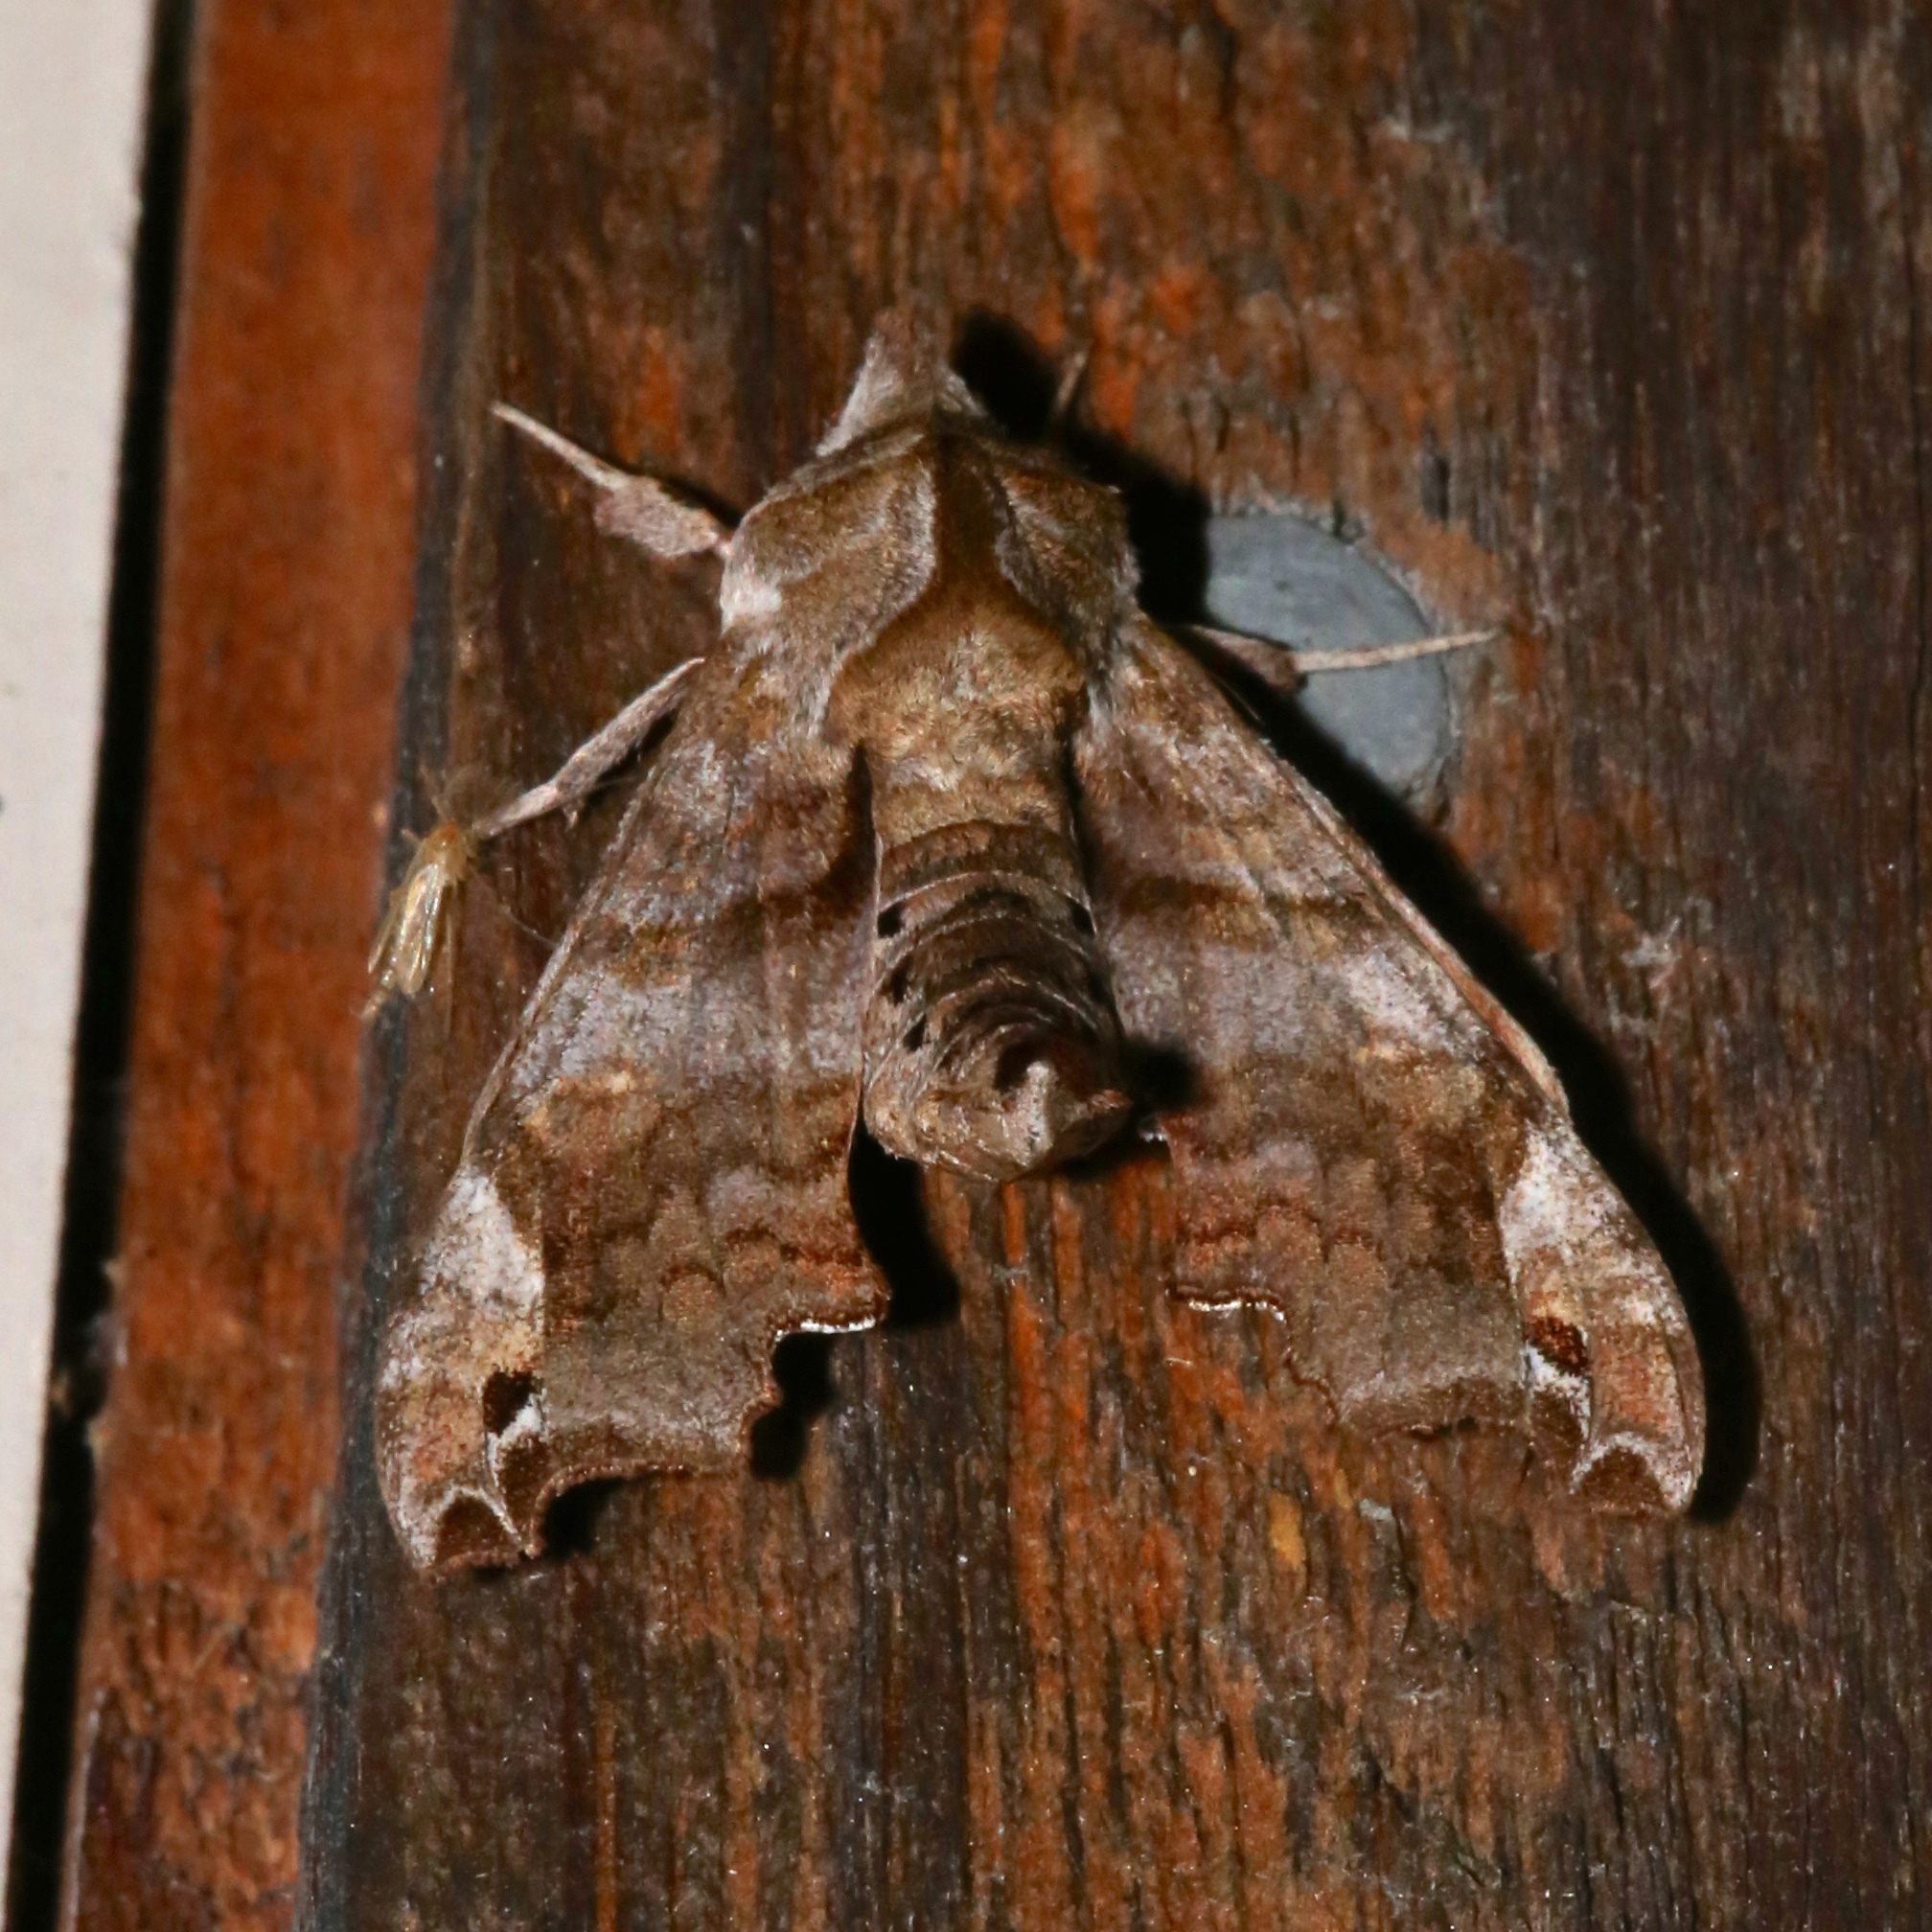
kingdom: Animalia
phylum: Arthropoda
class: Insecta
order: Lepidoptera
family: Sphingidae
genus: Deidamia
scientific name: Deidamia inscriptum
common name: Lettered sphinx
